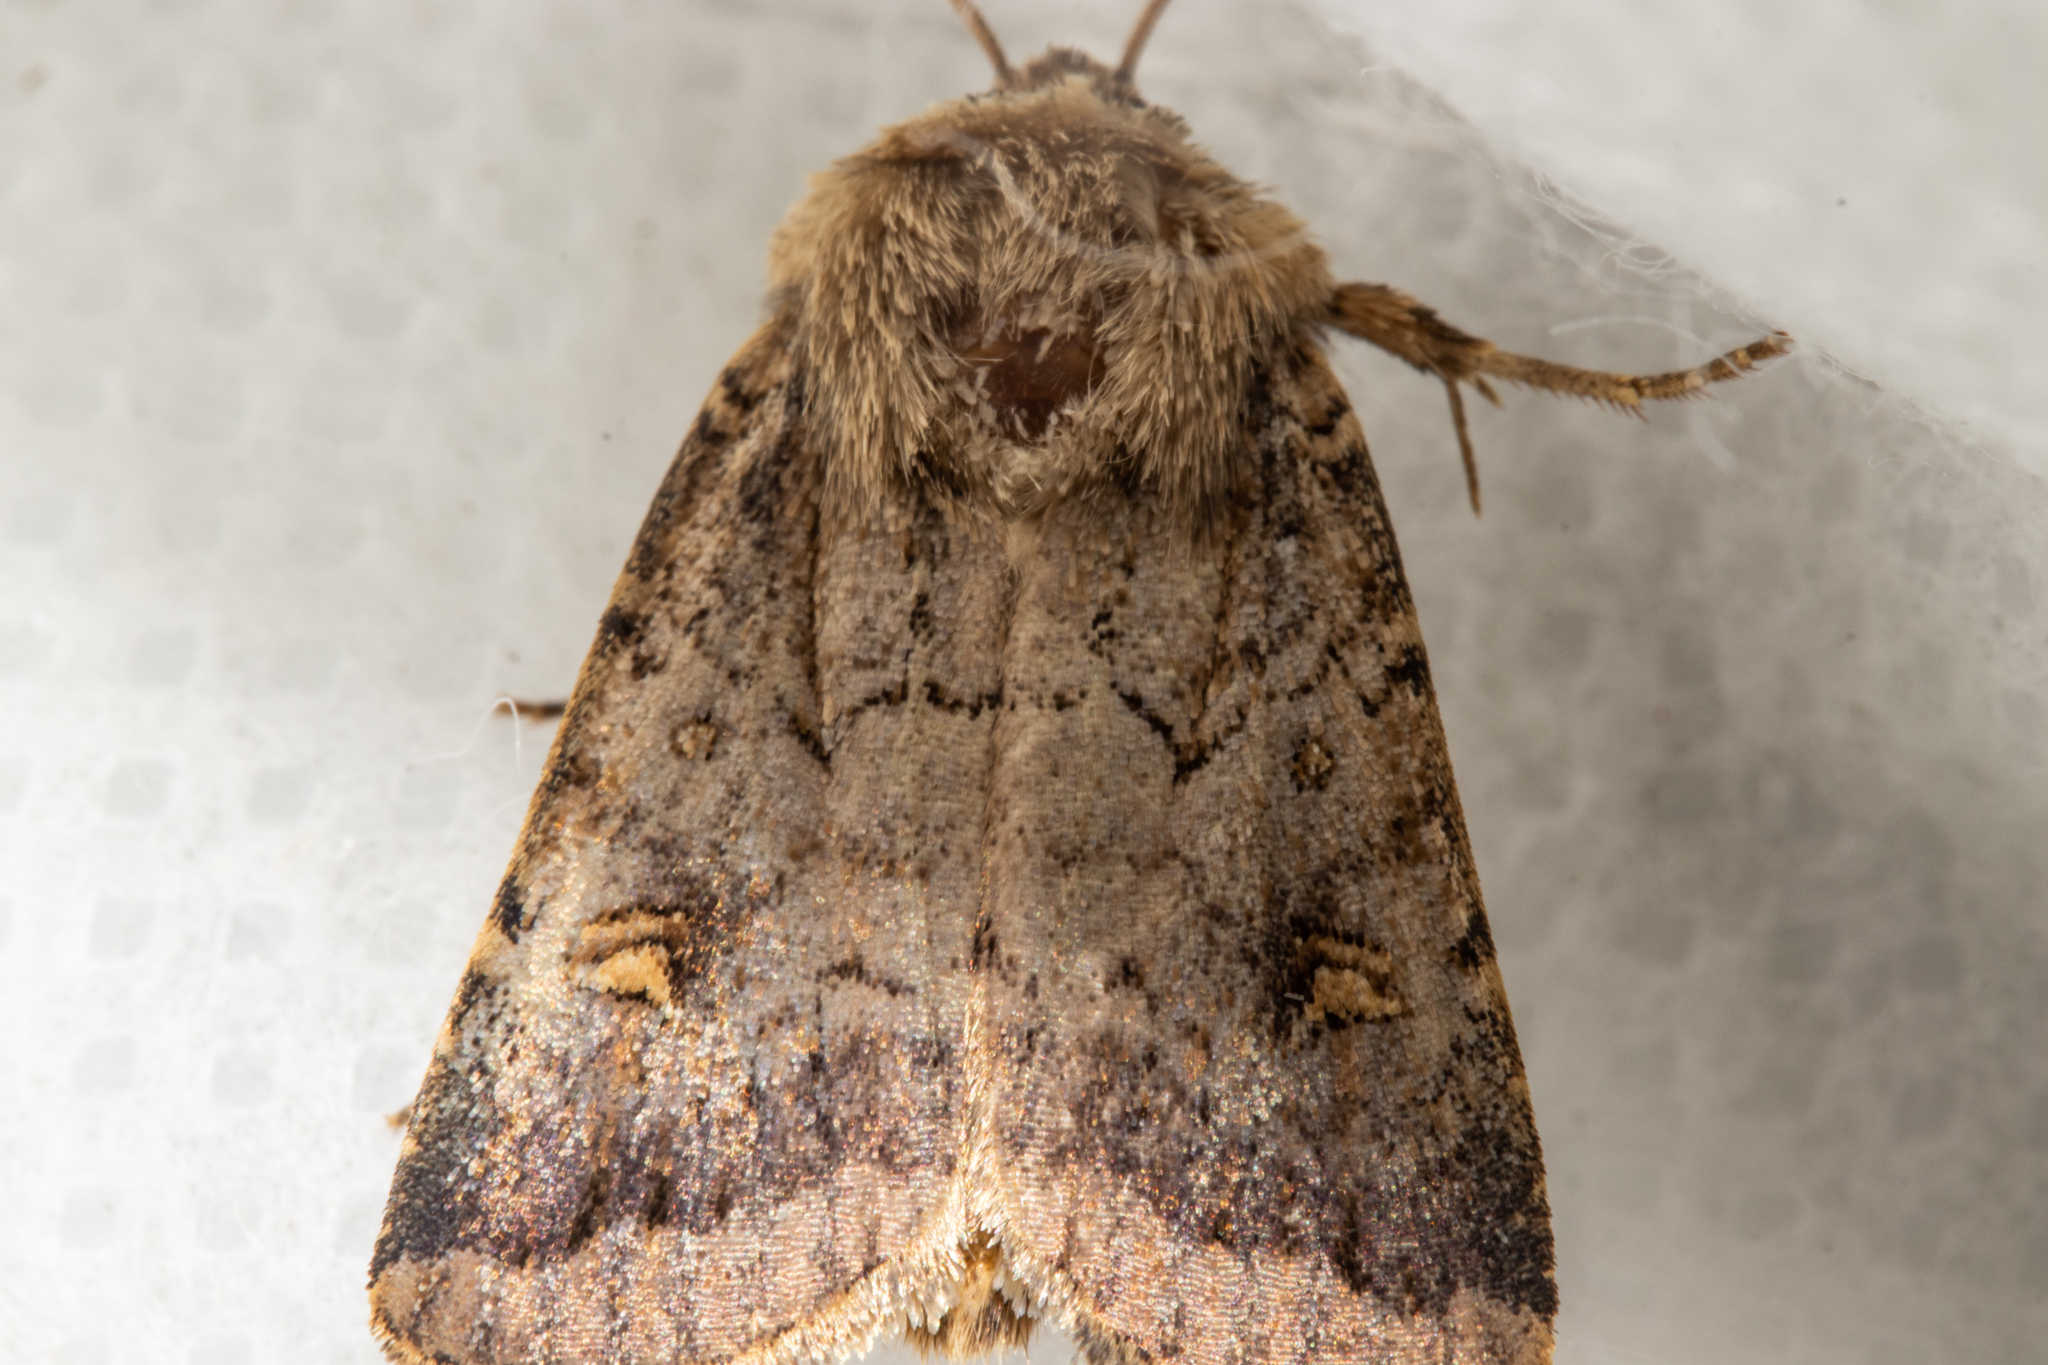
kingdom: Animalia
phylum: Arthropoda
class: Insecta
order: Lepidoptera
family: Noctuidae
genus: Proteuxoa
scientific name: Proteuxoa tetronycha
